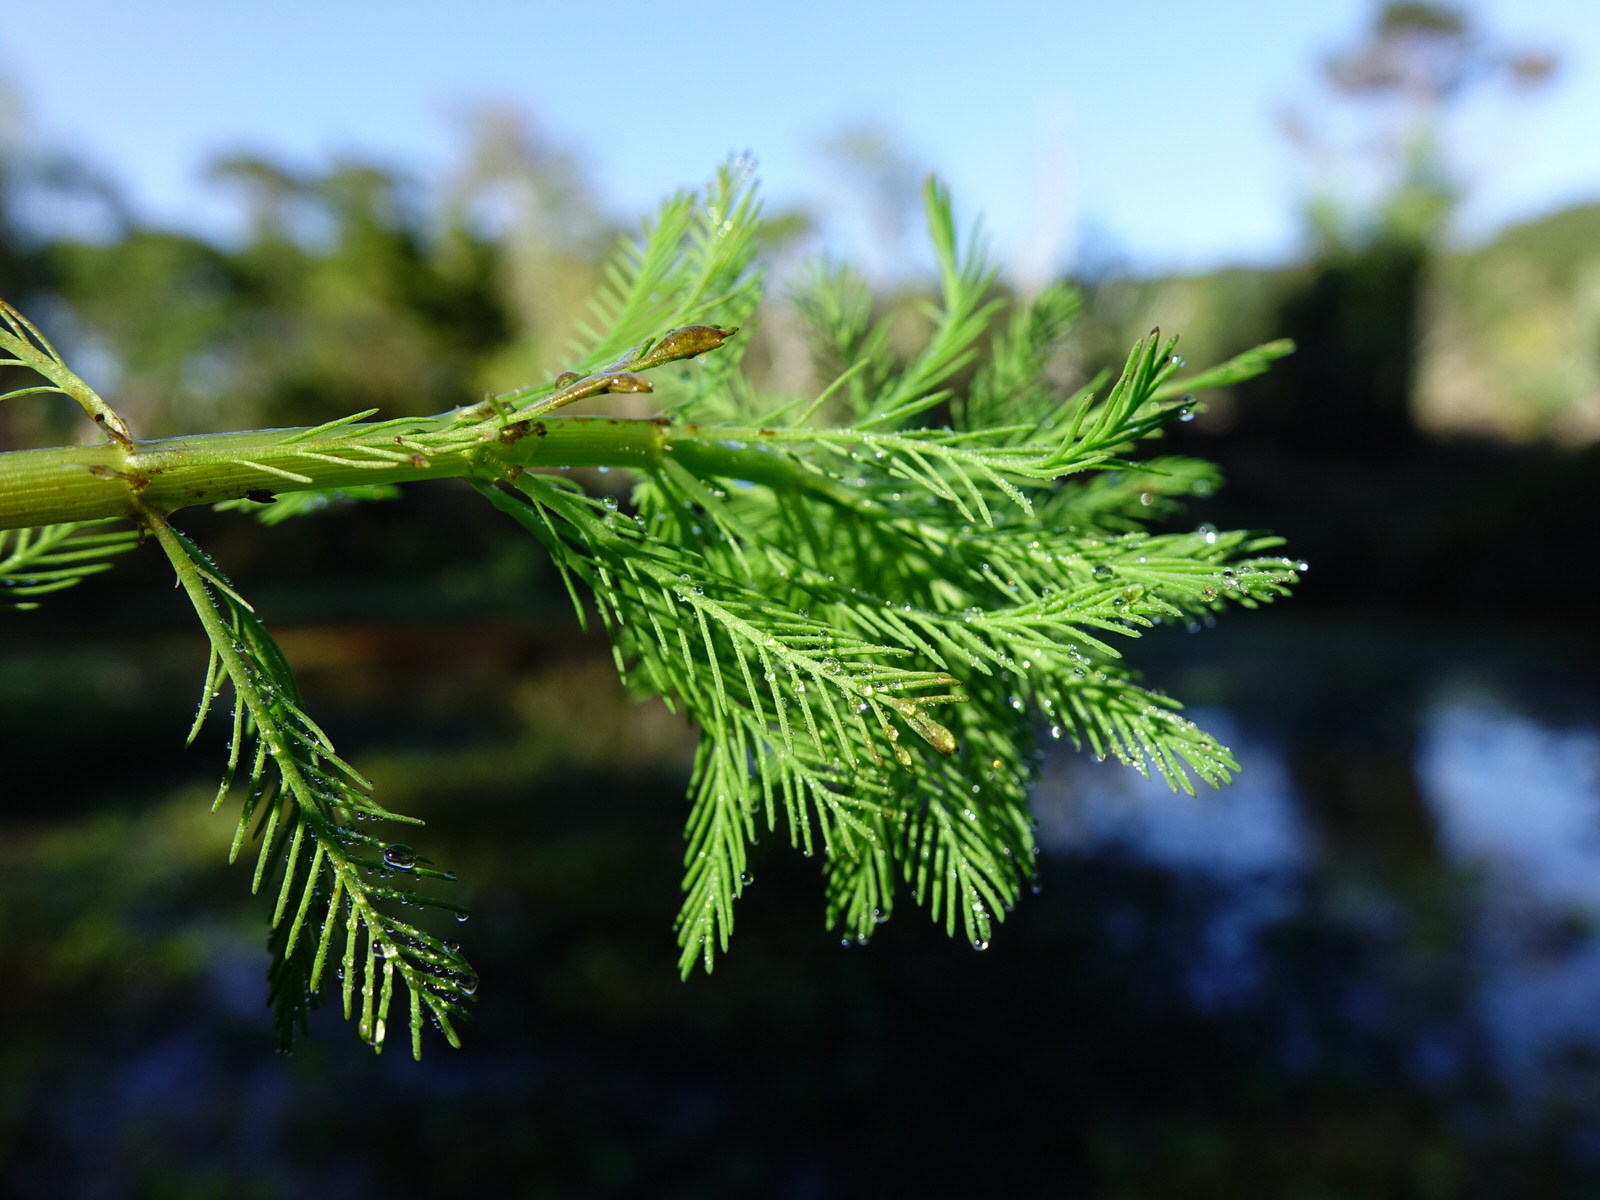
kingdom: Plantae
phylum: Tracheophyta
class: Magnoliopsida
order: Saxifragales
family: Haloragaceae
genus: Myriophyllum
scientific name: Myriophyllum aquaticum
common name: Parrot's feather
